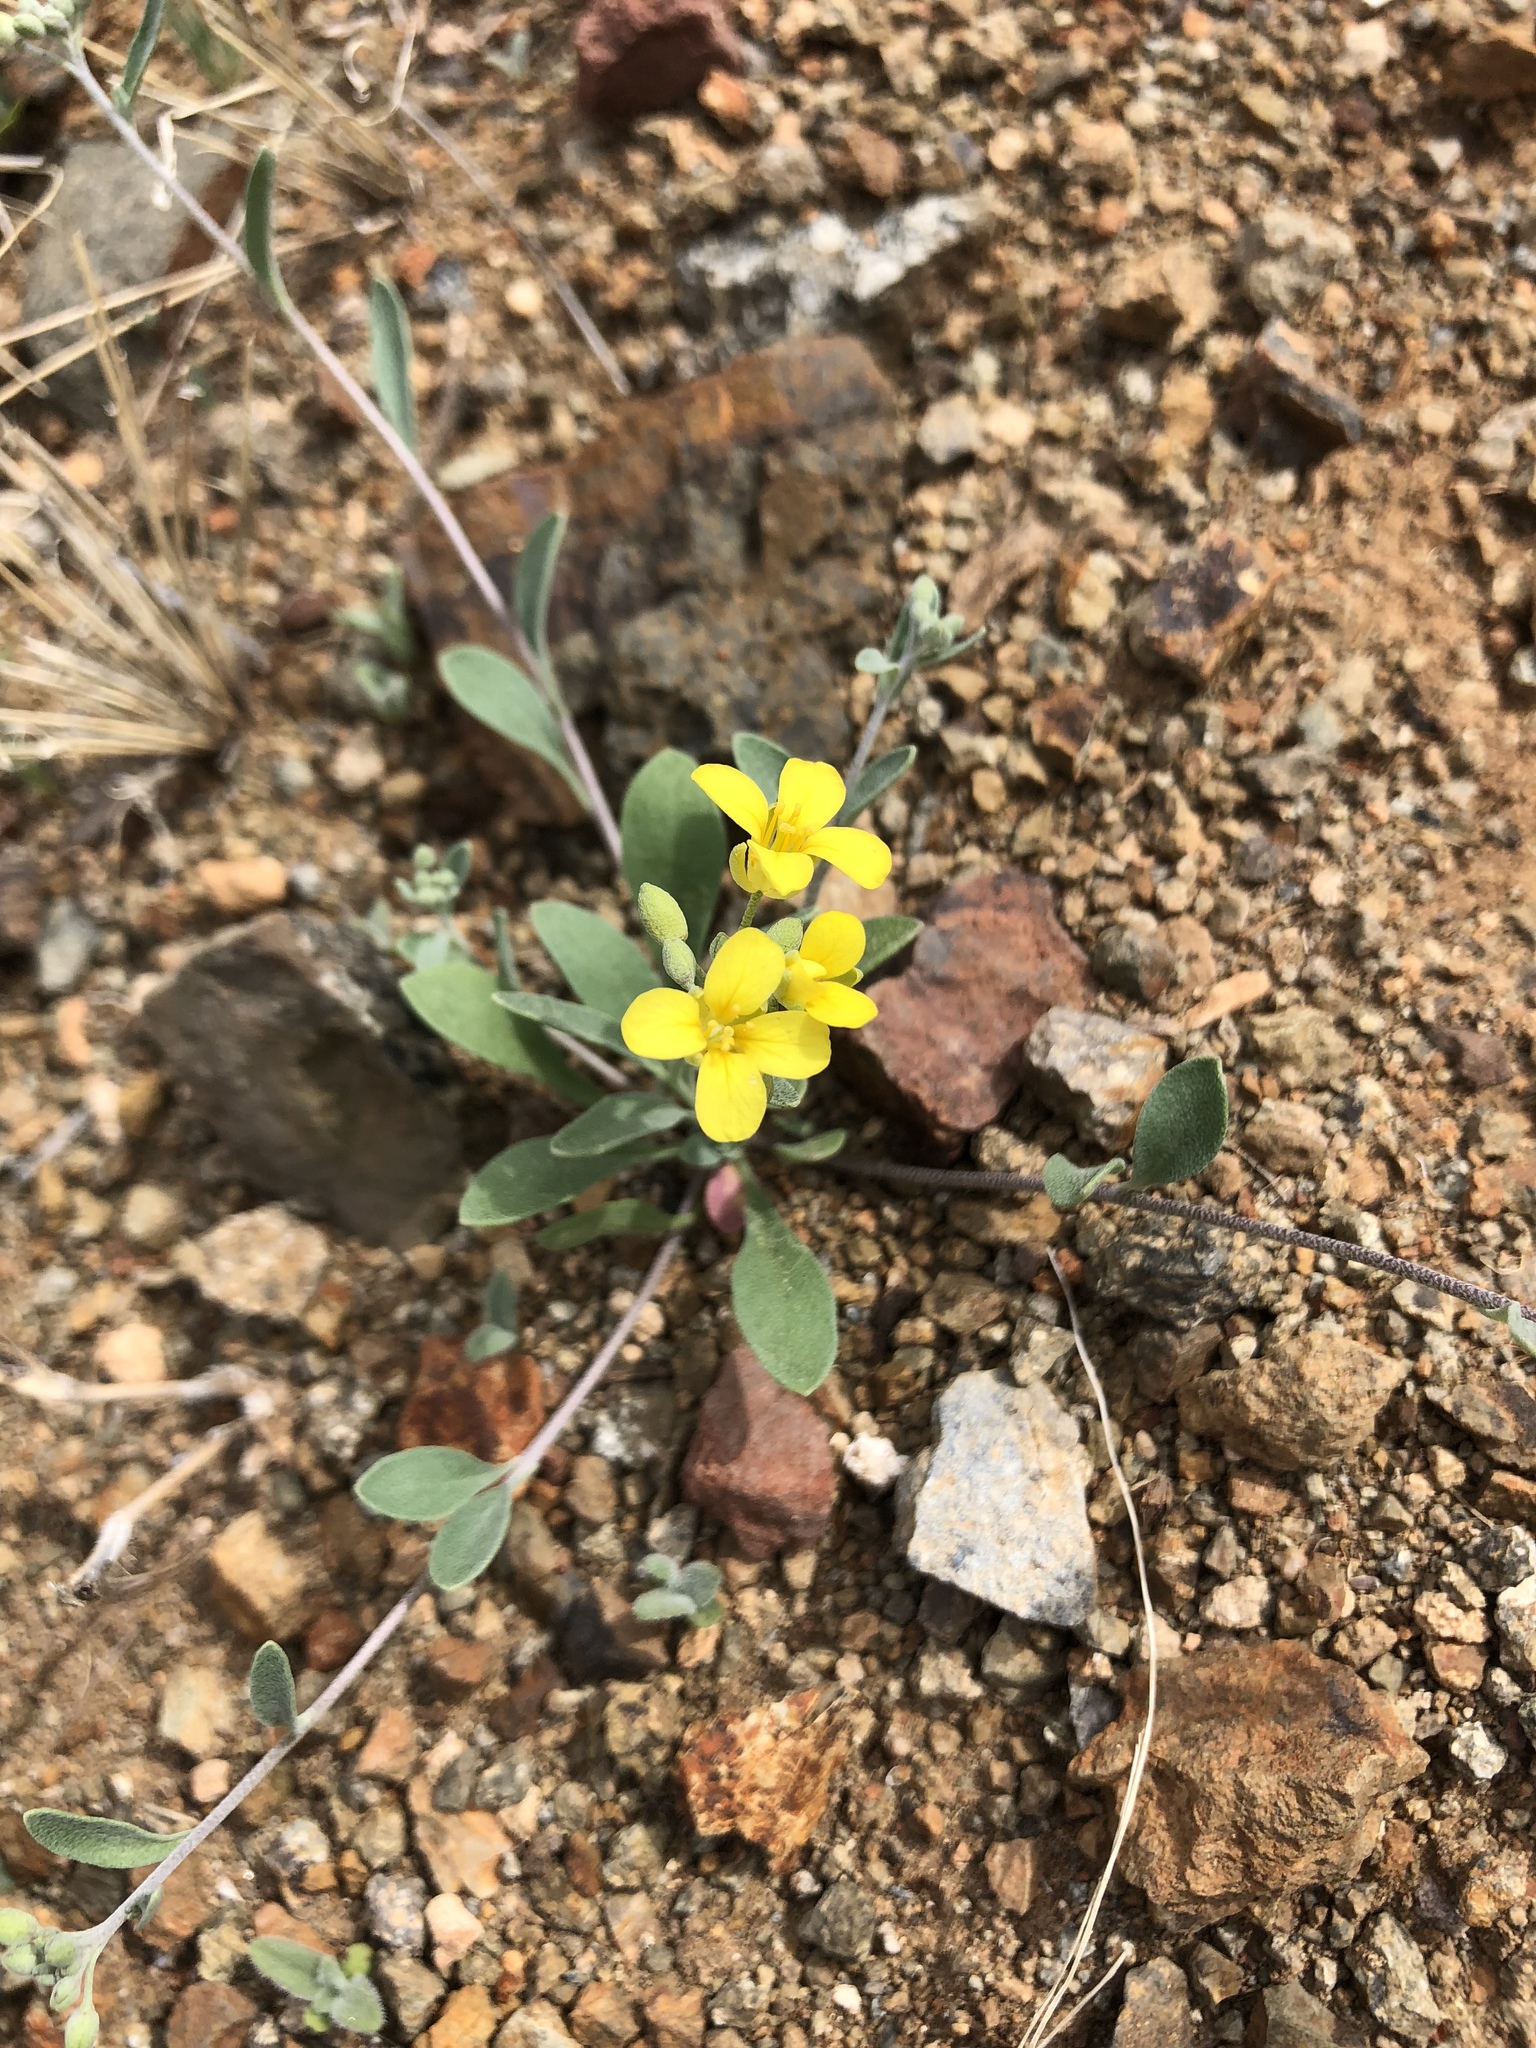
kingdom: Plantae
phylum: Tracheophyta
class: Magnoliopsida
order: Brassicales
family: Brassicaceae
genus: Physaria
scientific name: Physaria tenella
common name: Moapa bladderpod
